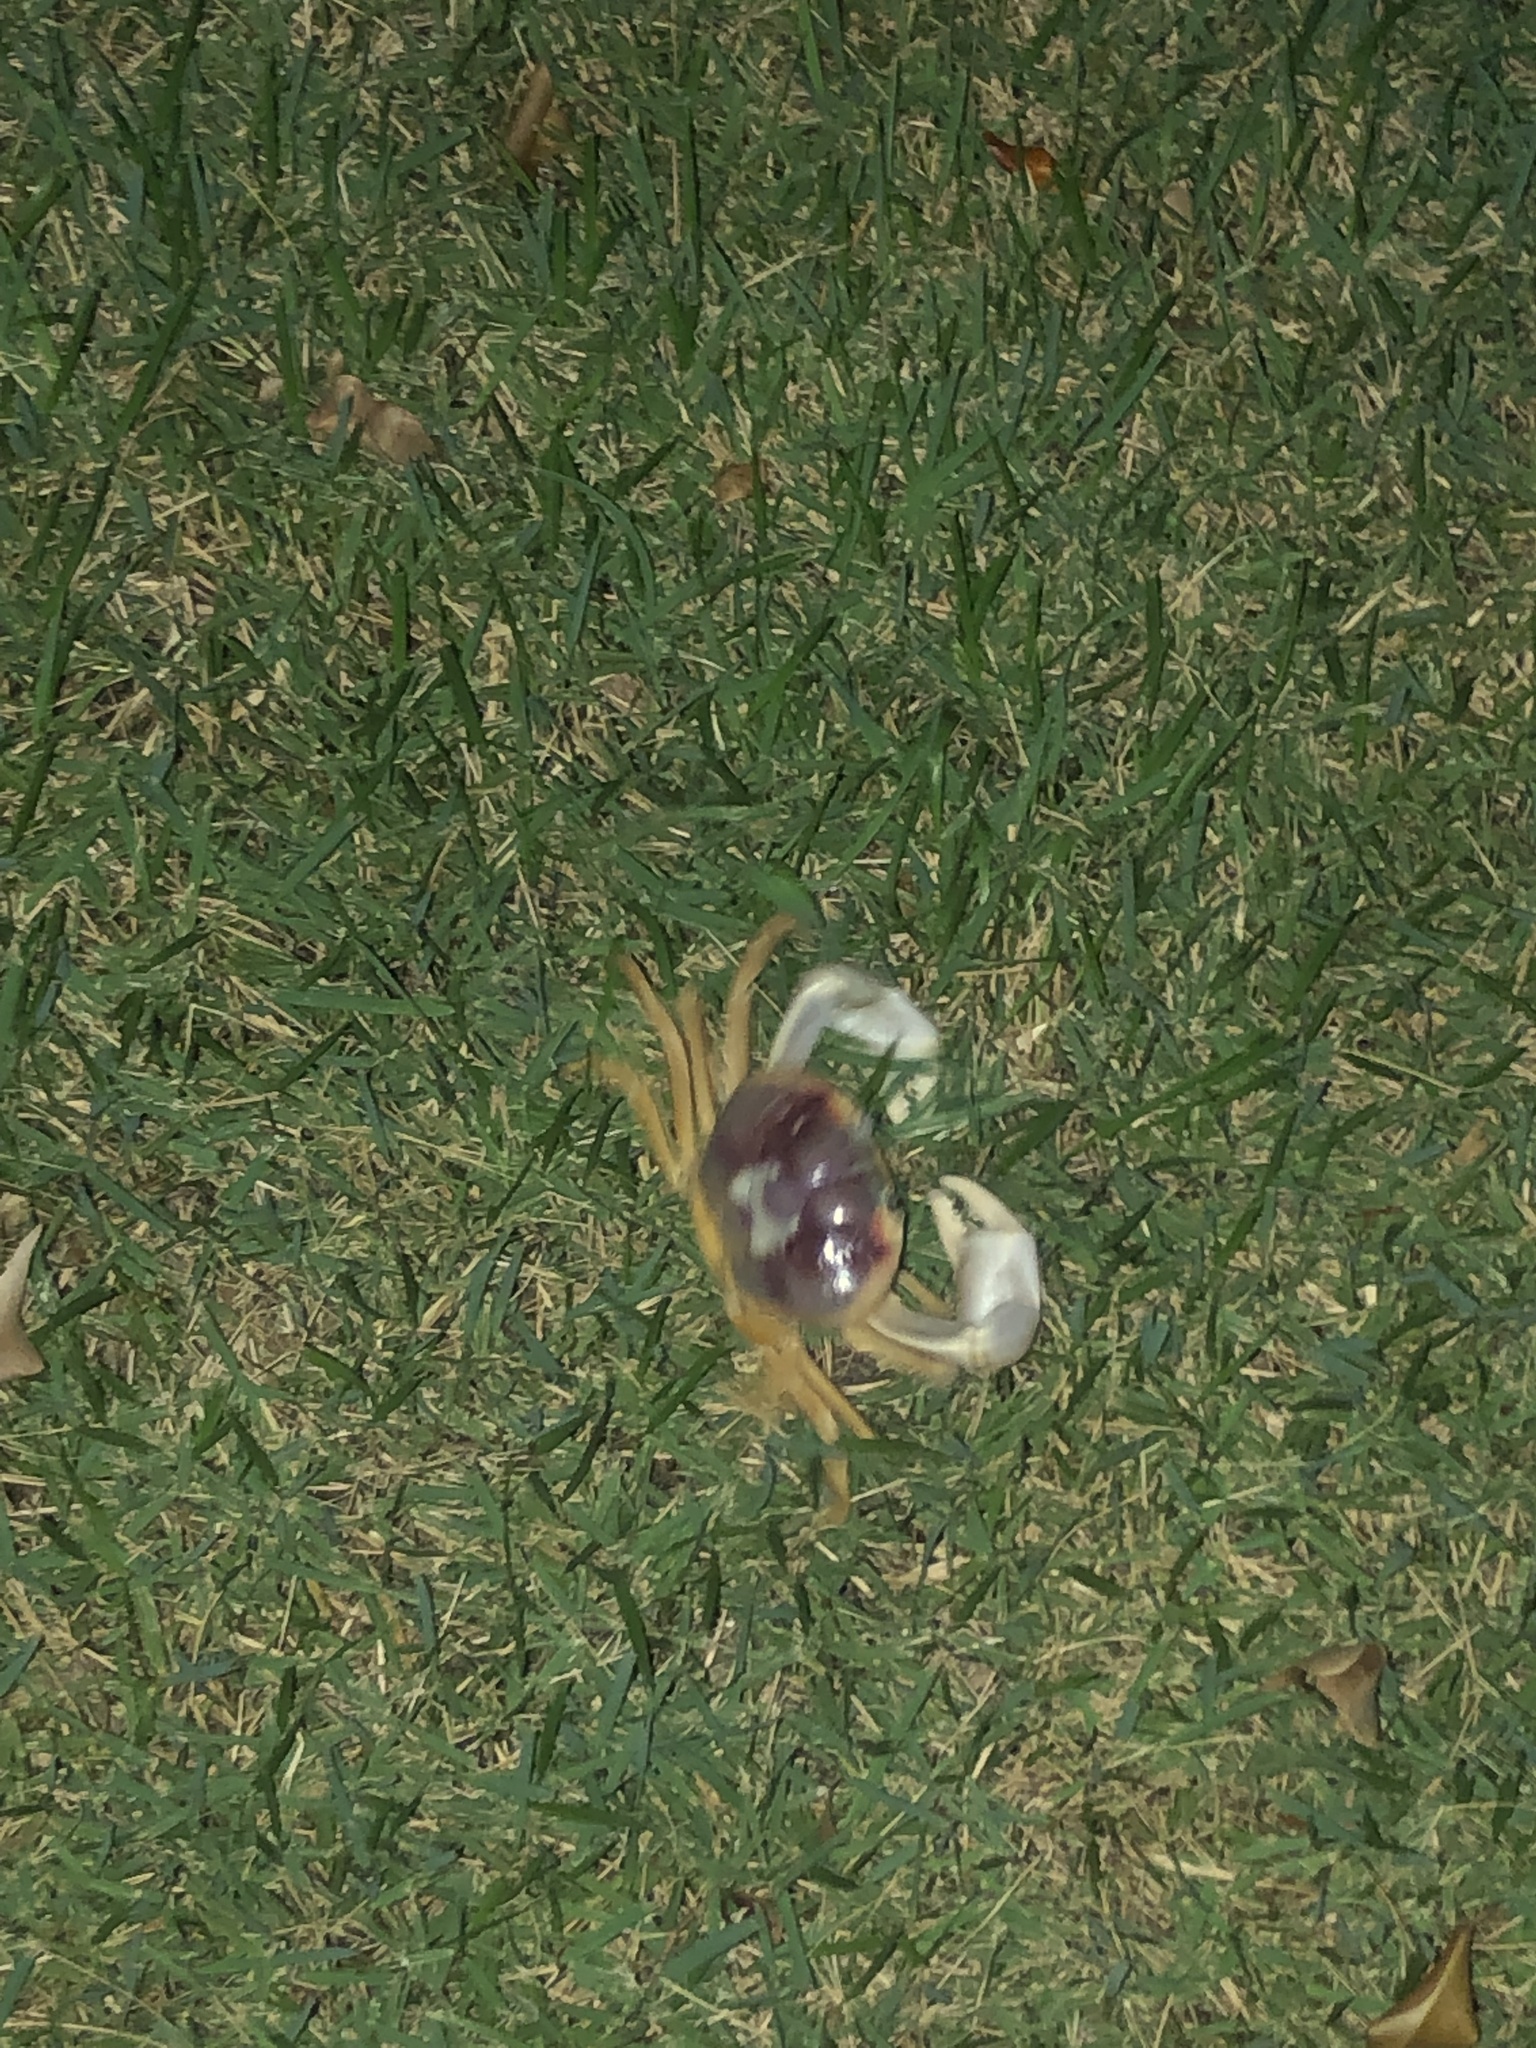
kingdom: Animalia
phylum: Arthropoda
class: Malacostraca
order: Decapoda
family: Gecarcinidae
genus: Gecarcinus
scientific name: Gecarcinus quadratus
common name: Halloween crab
